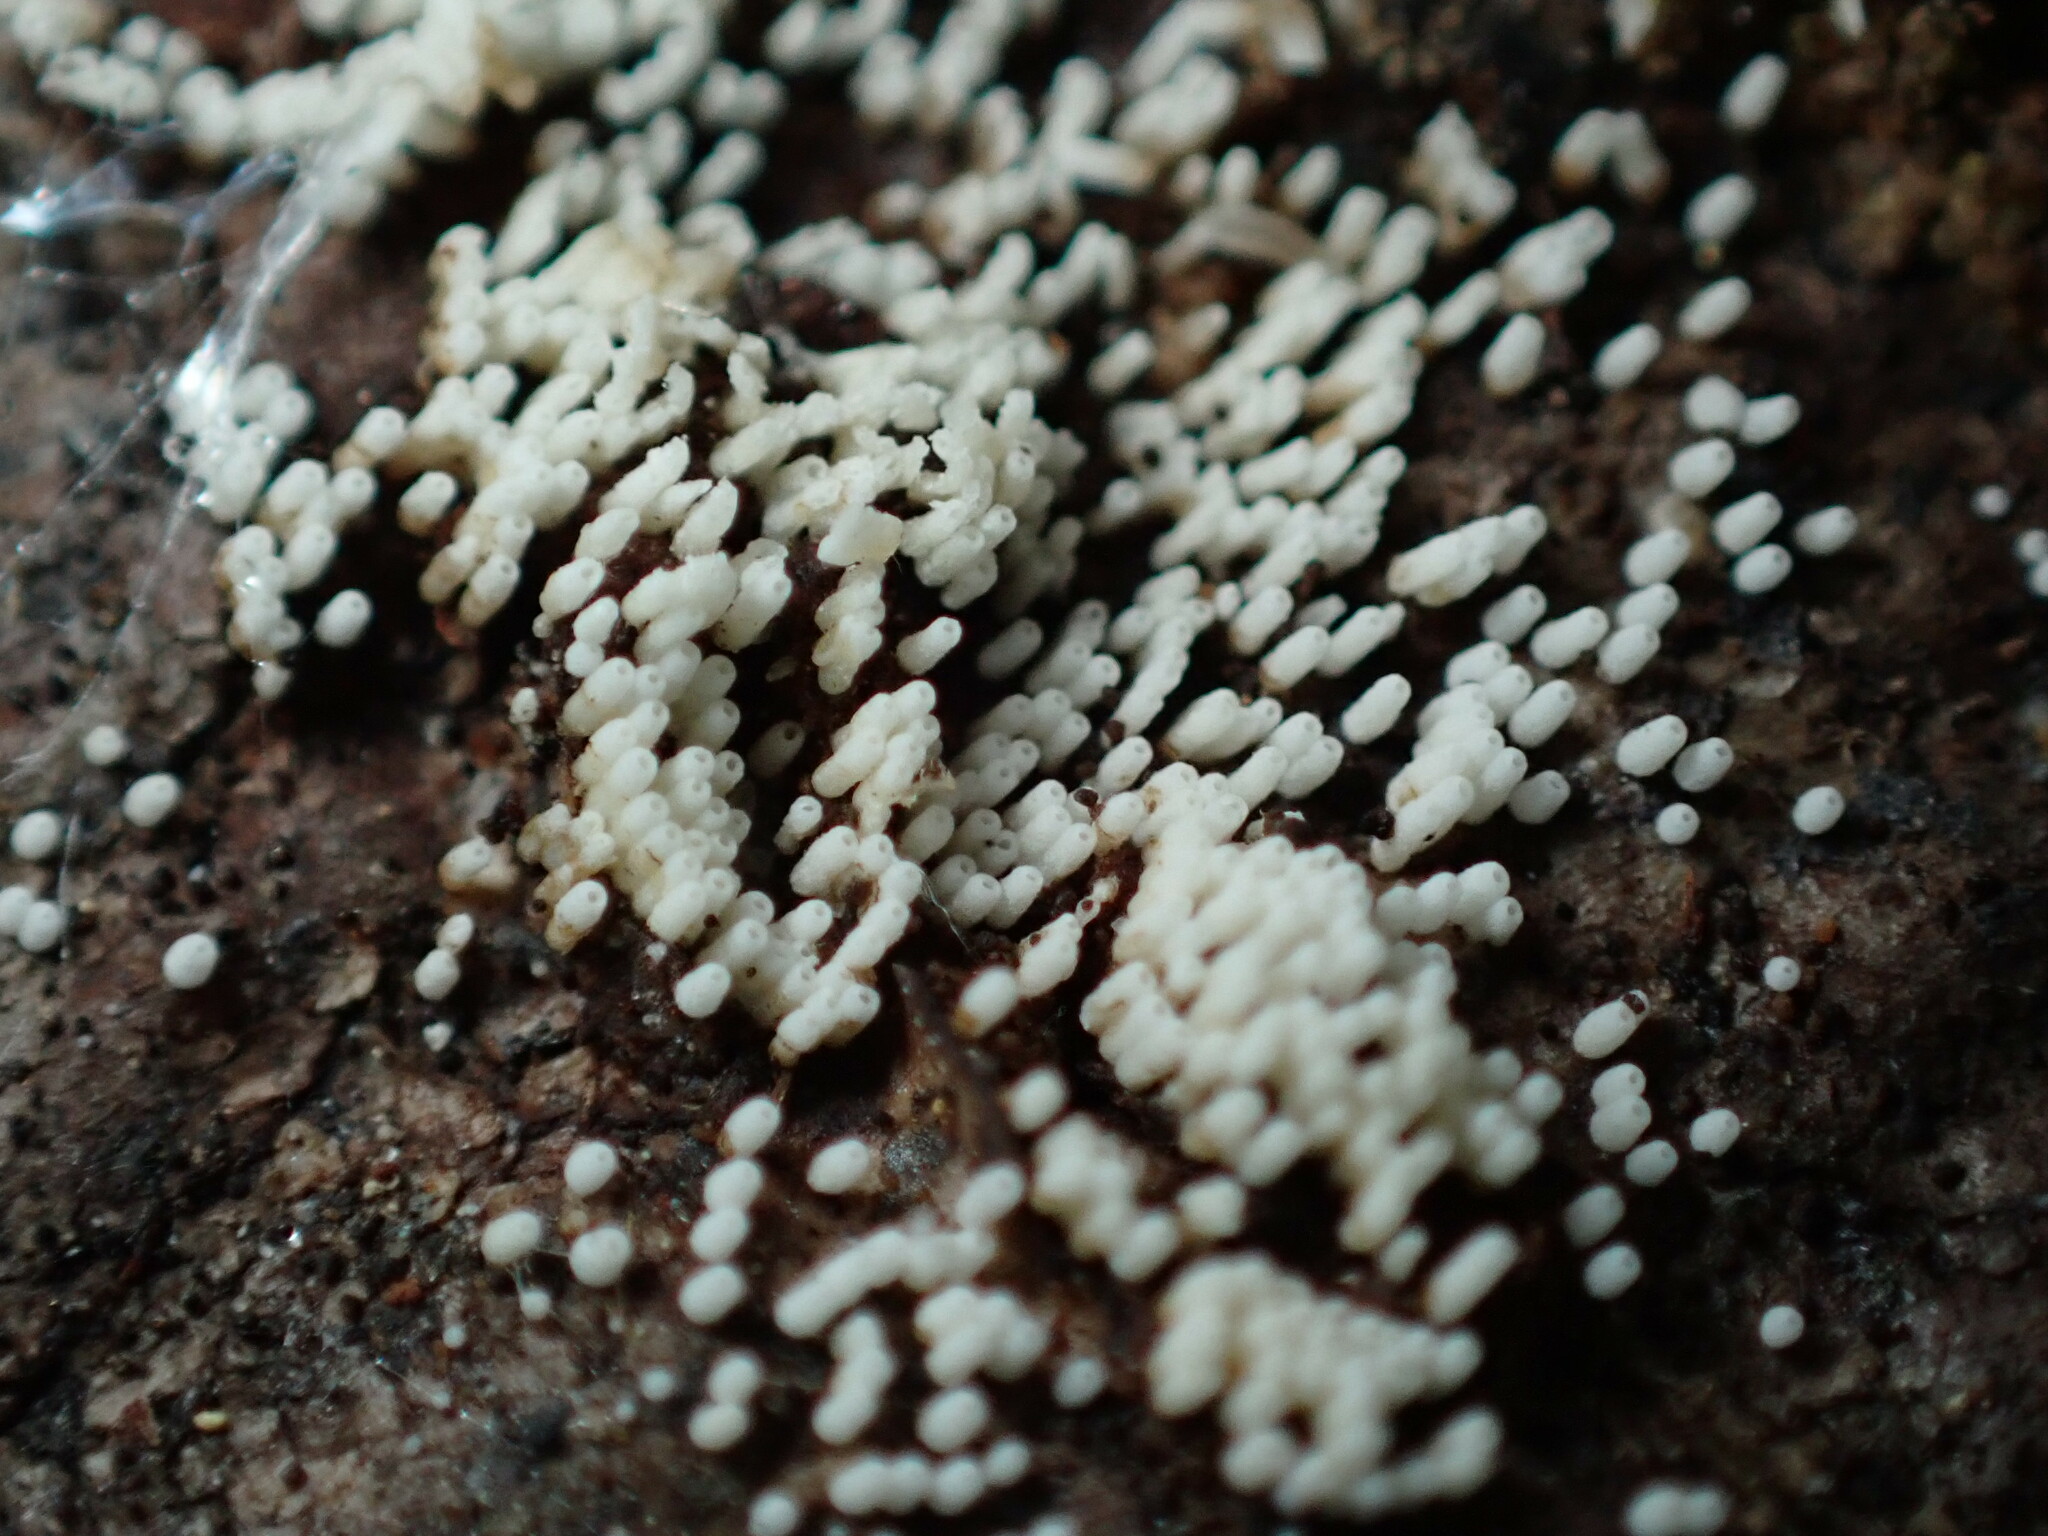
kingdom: Fungi
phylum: Basidiomycota
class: Agaricomycetes
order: Agaricales
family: Marasmiaceae
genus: Henningsomyces
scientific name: Henningsomyces candidus
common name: White tubelet
